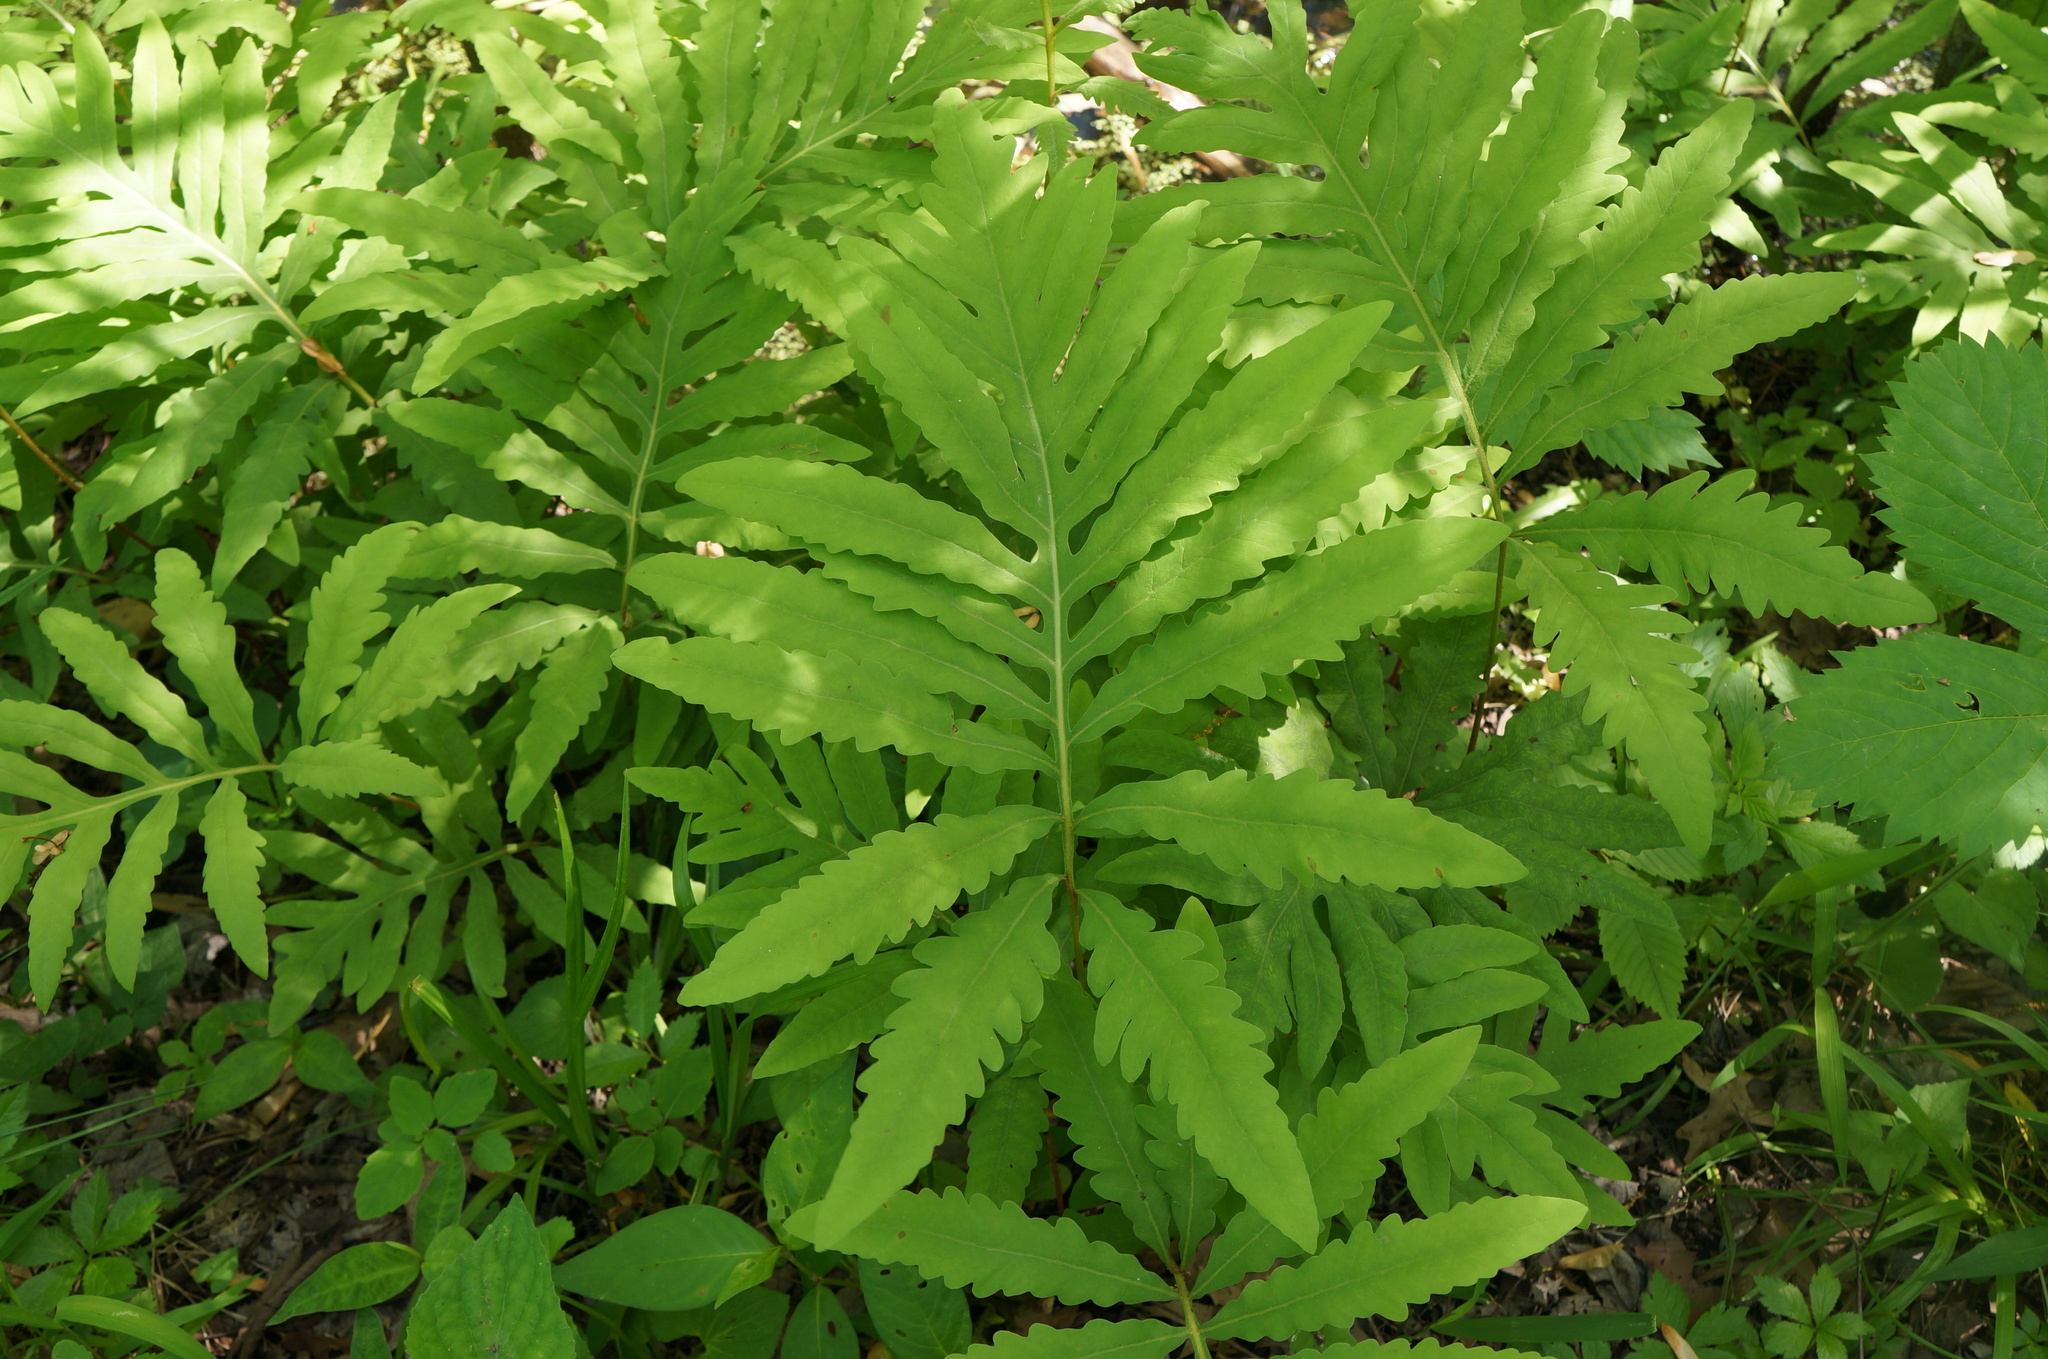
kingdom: Plantae
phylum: Tracheophyta
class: Polypodiopsida
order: Polypodiales
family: Onocleaceae
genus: Onoclea
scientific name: Onoclea sensibilis
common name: Sensitive fern
